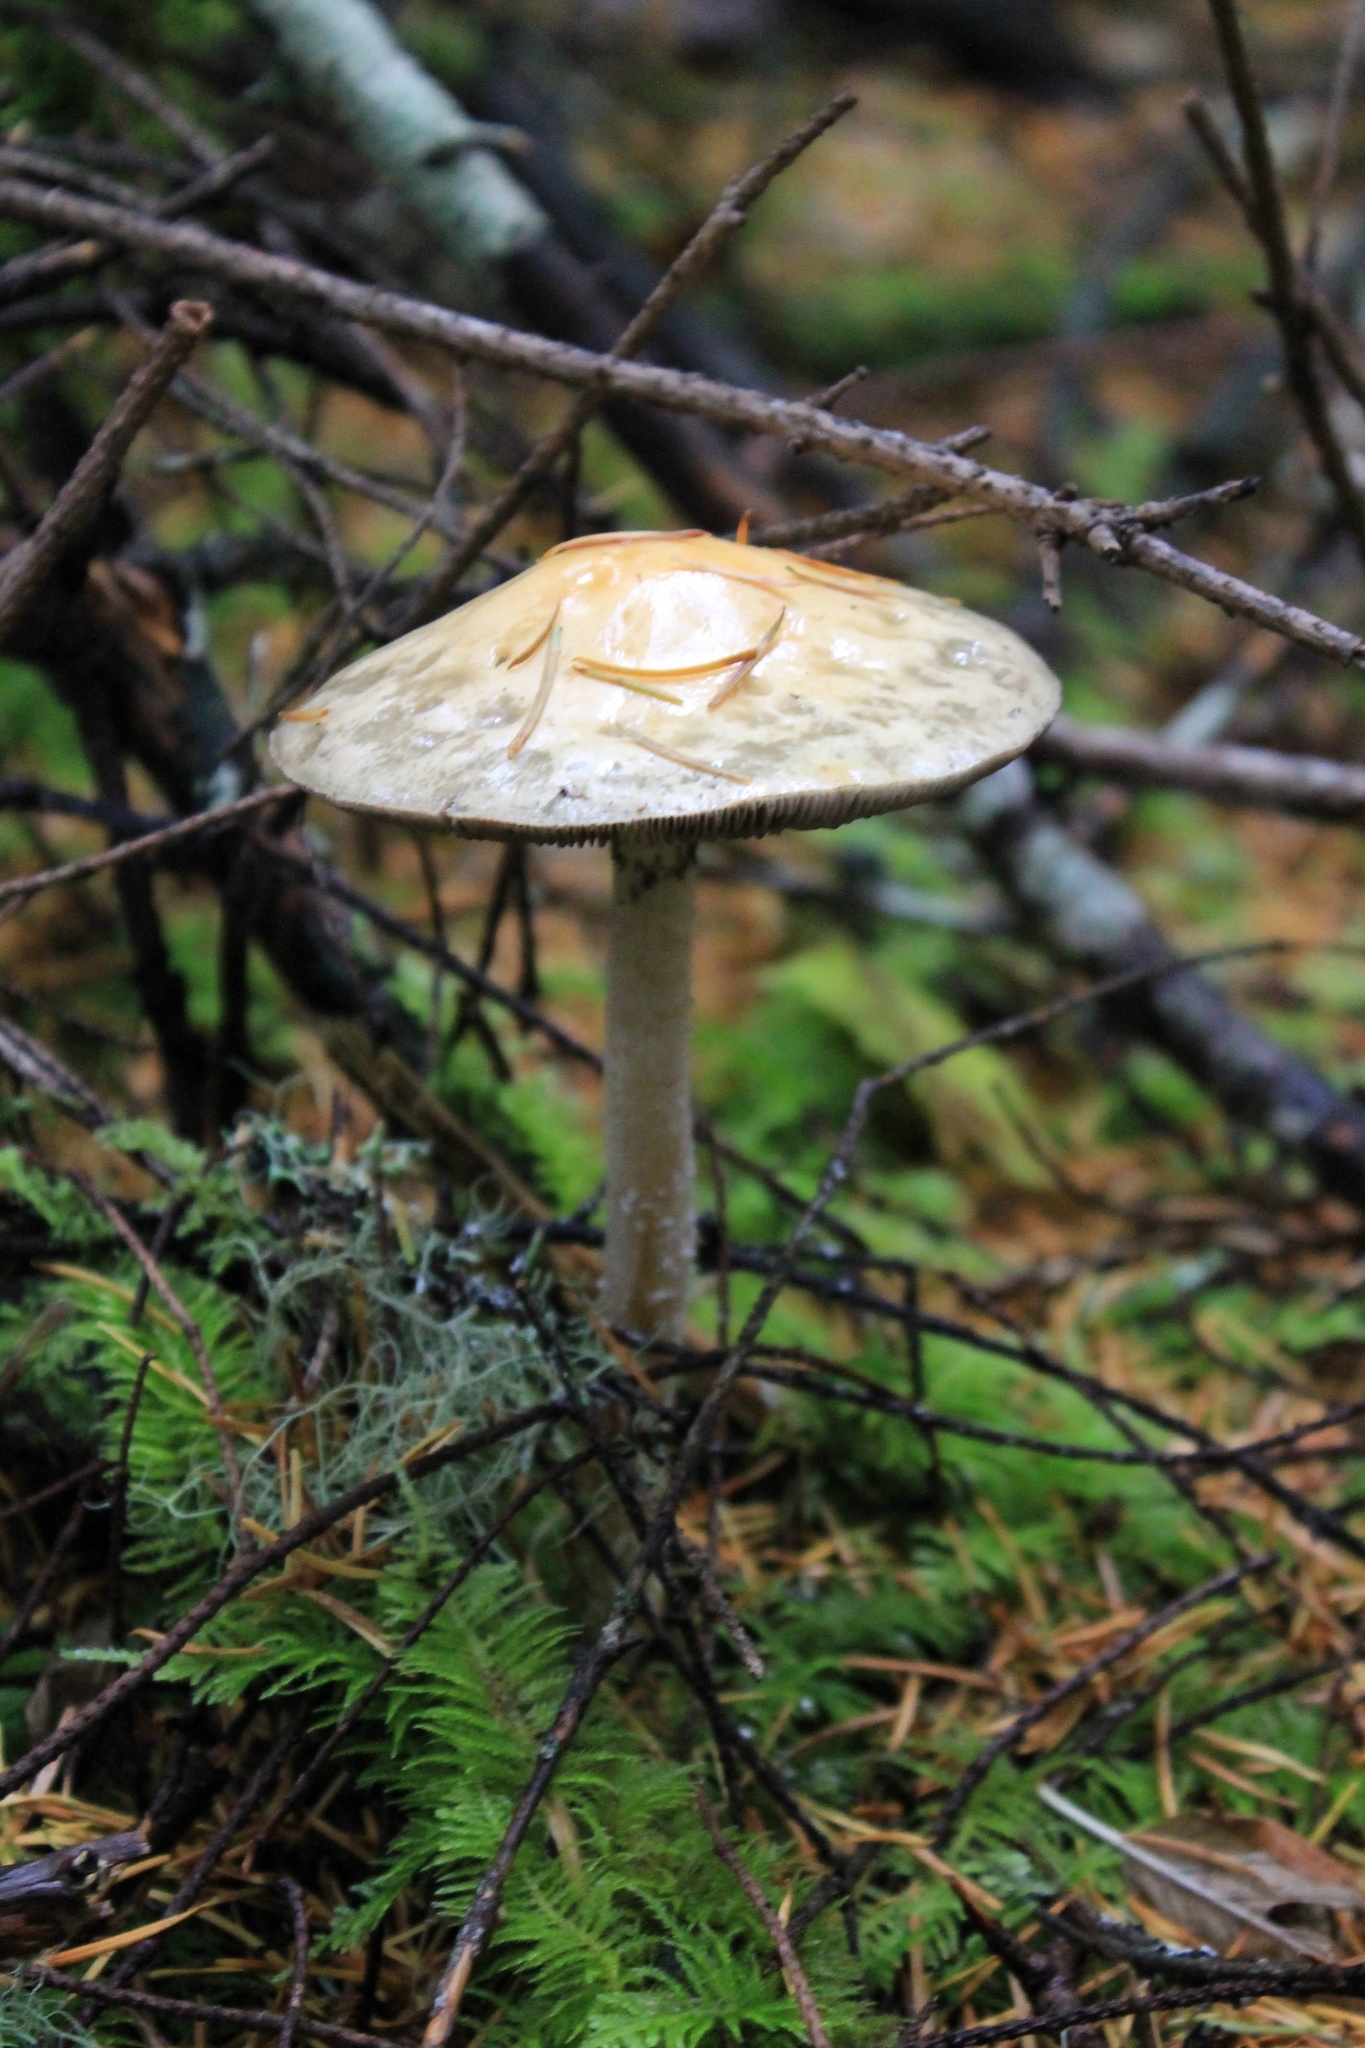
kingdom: Fungi
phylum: Basidiomycota
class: Agaricomycetes
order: Agaricales
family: Strophariaceae
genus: Stropharia
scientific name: Stropharia ambigua
